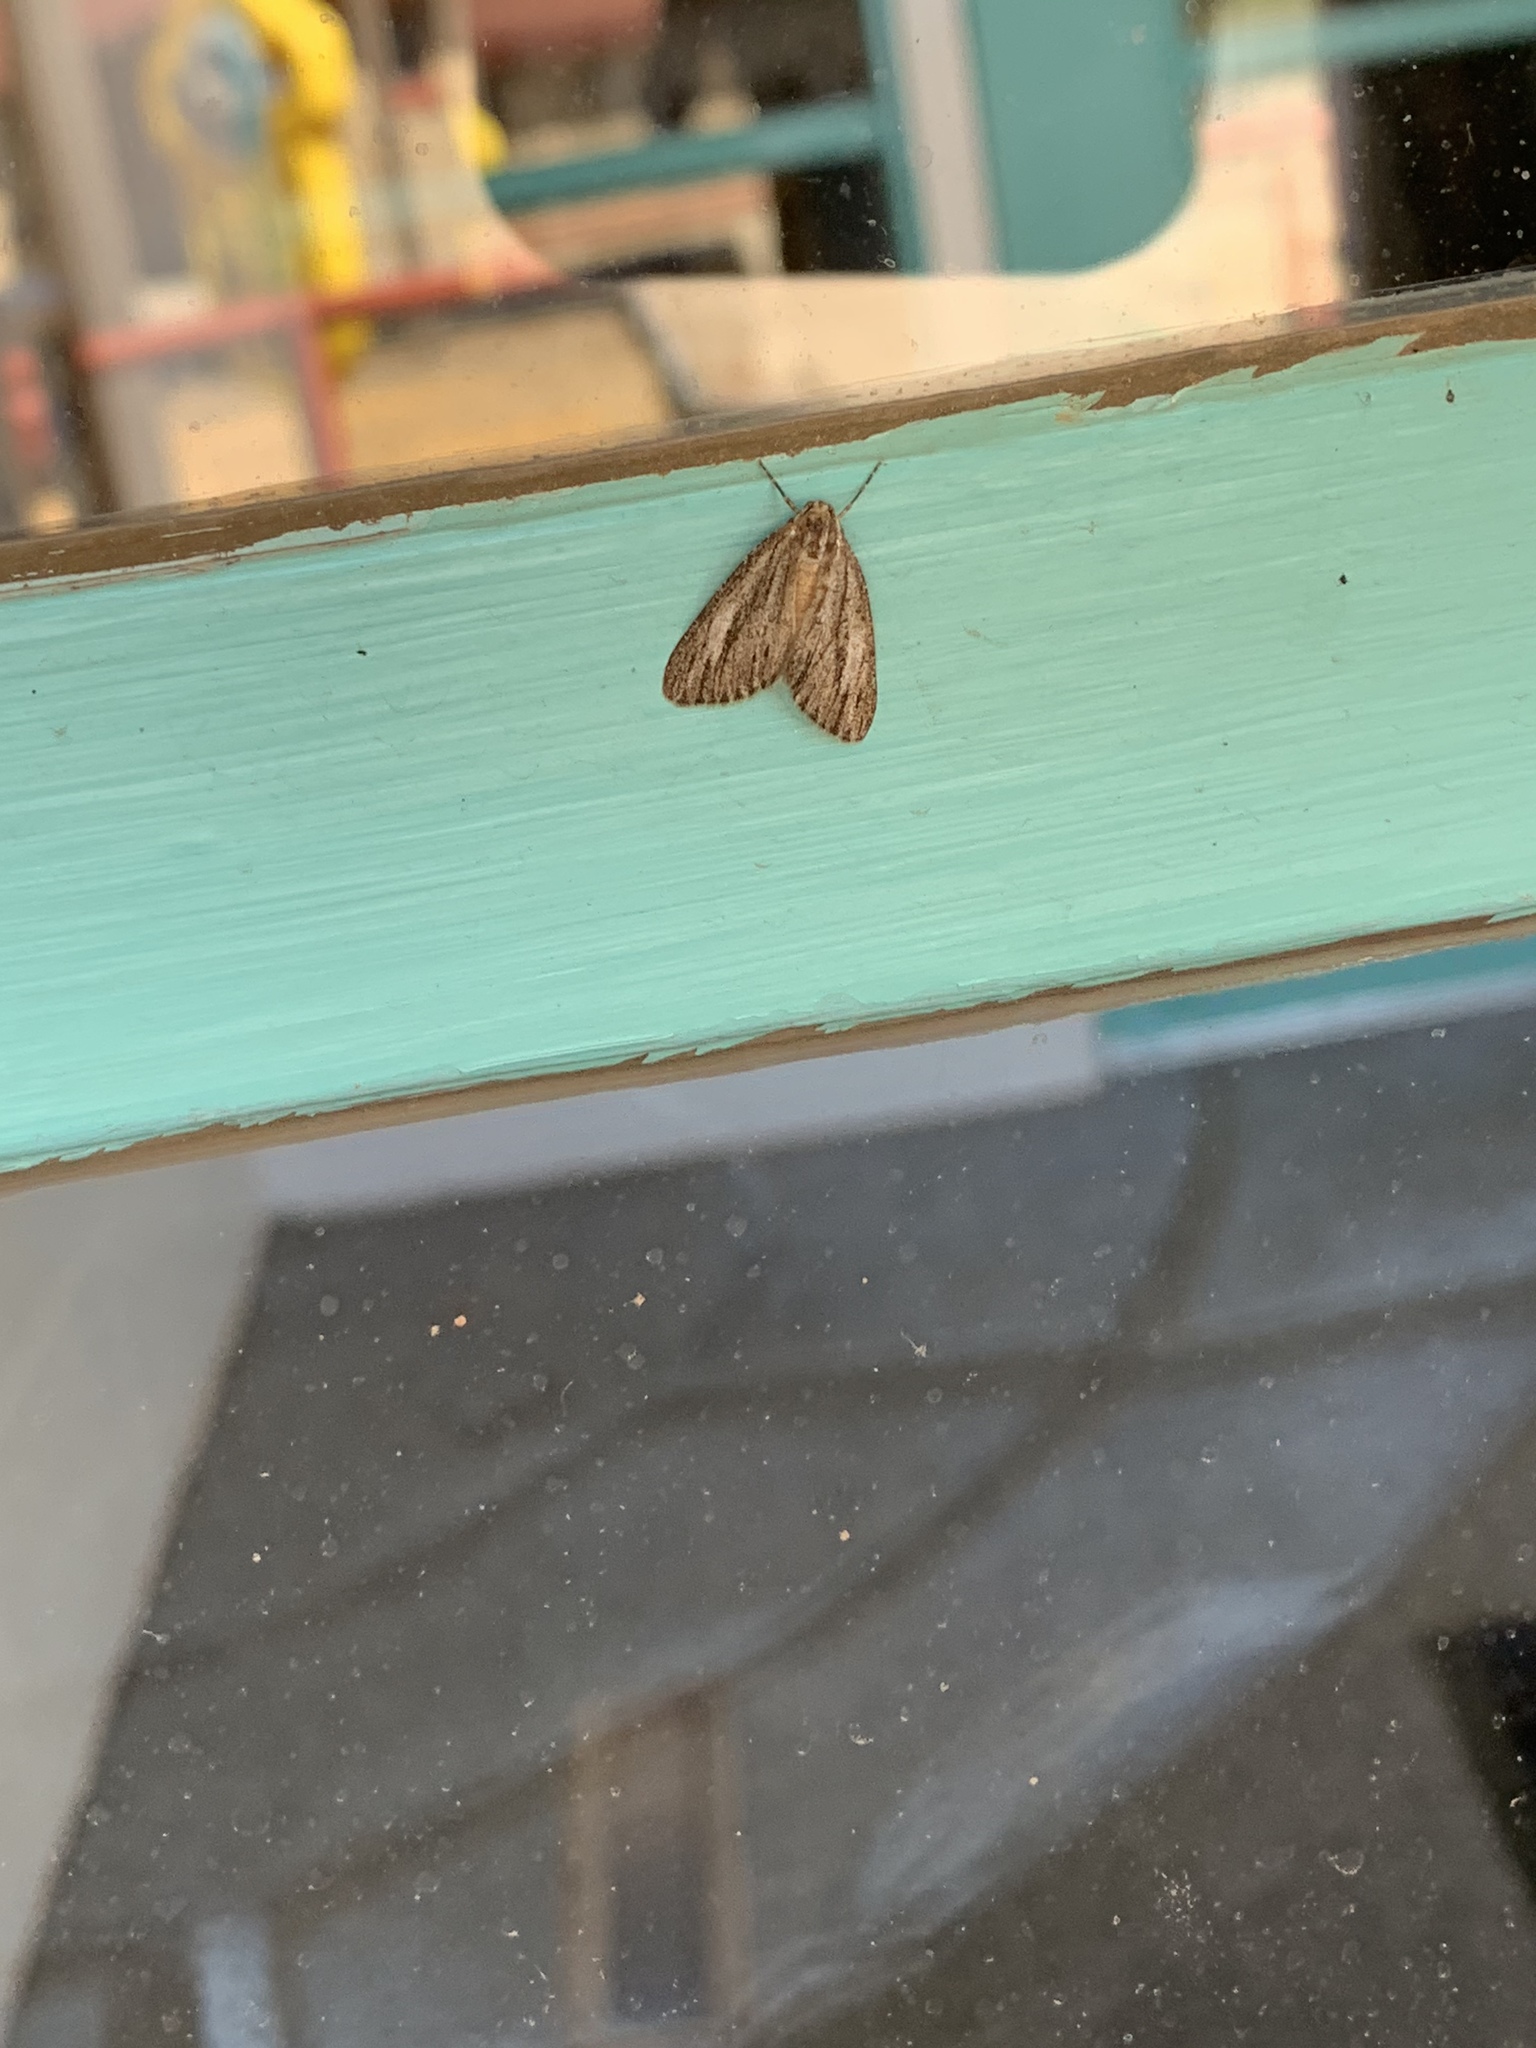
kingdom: Animalia
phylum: Arthropoda
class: Insecta
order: Lepidoptera
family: Geometridae
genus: Carphoides
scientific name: Carphoides incopriarius
